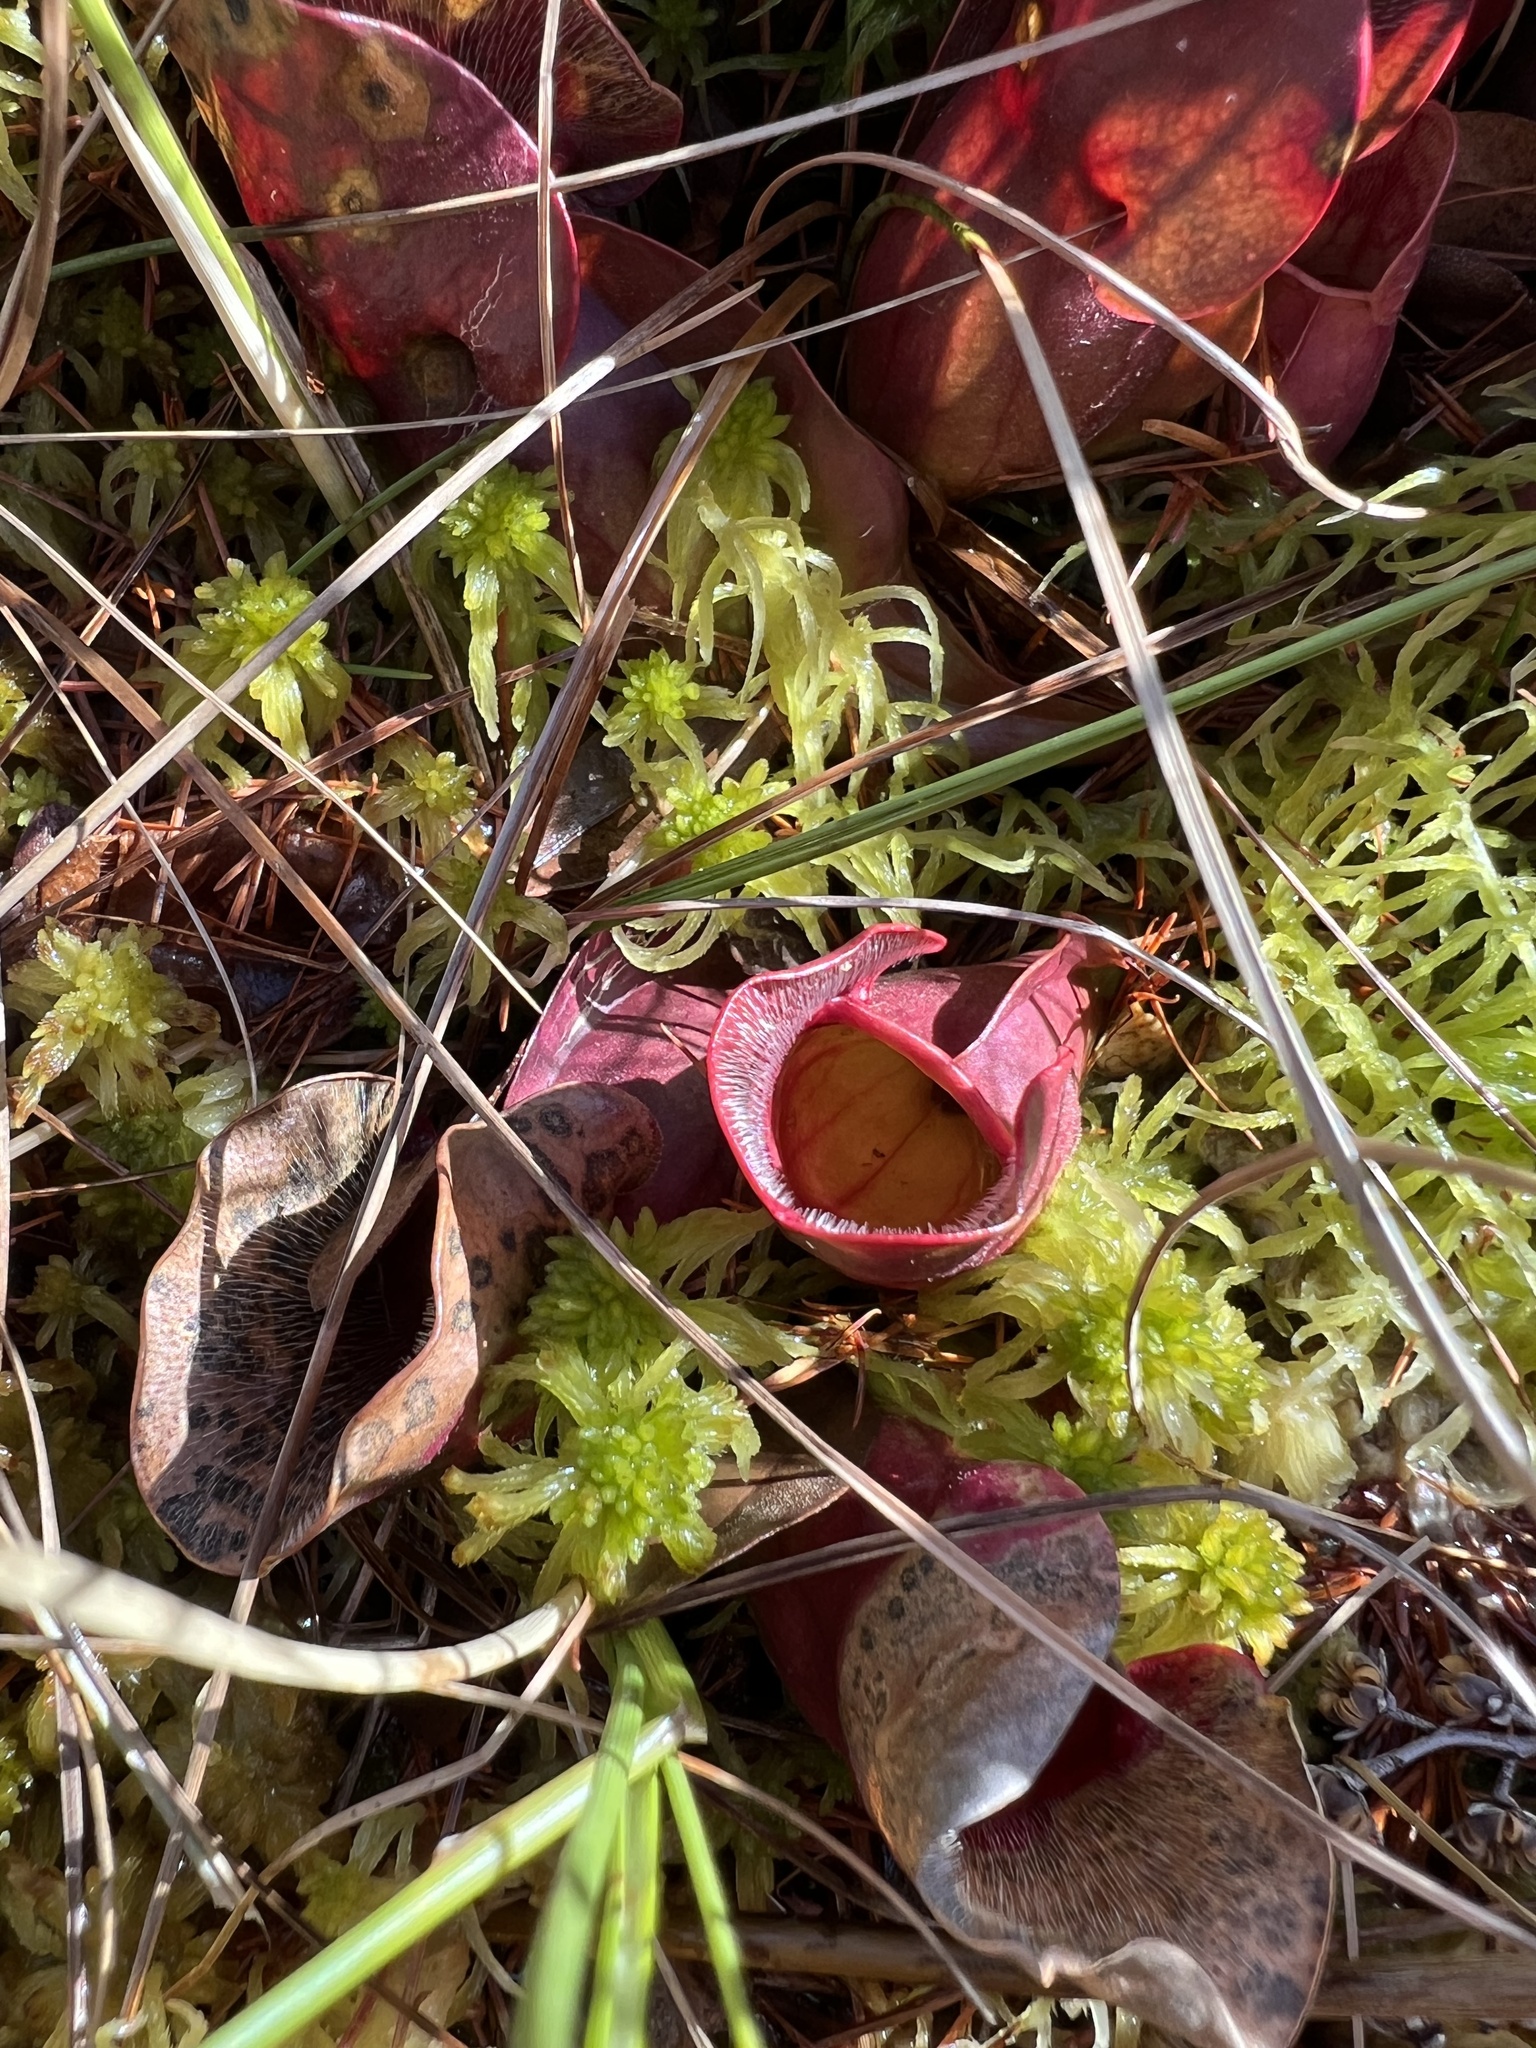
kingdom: Plantae
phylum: Tracheophyta
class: Magnoliopsida
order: Ericales
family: Sarraceniaceae
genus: Sarracenia
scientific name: Sarracenia purpurea
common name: Pitcherplant
